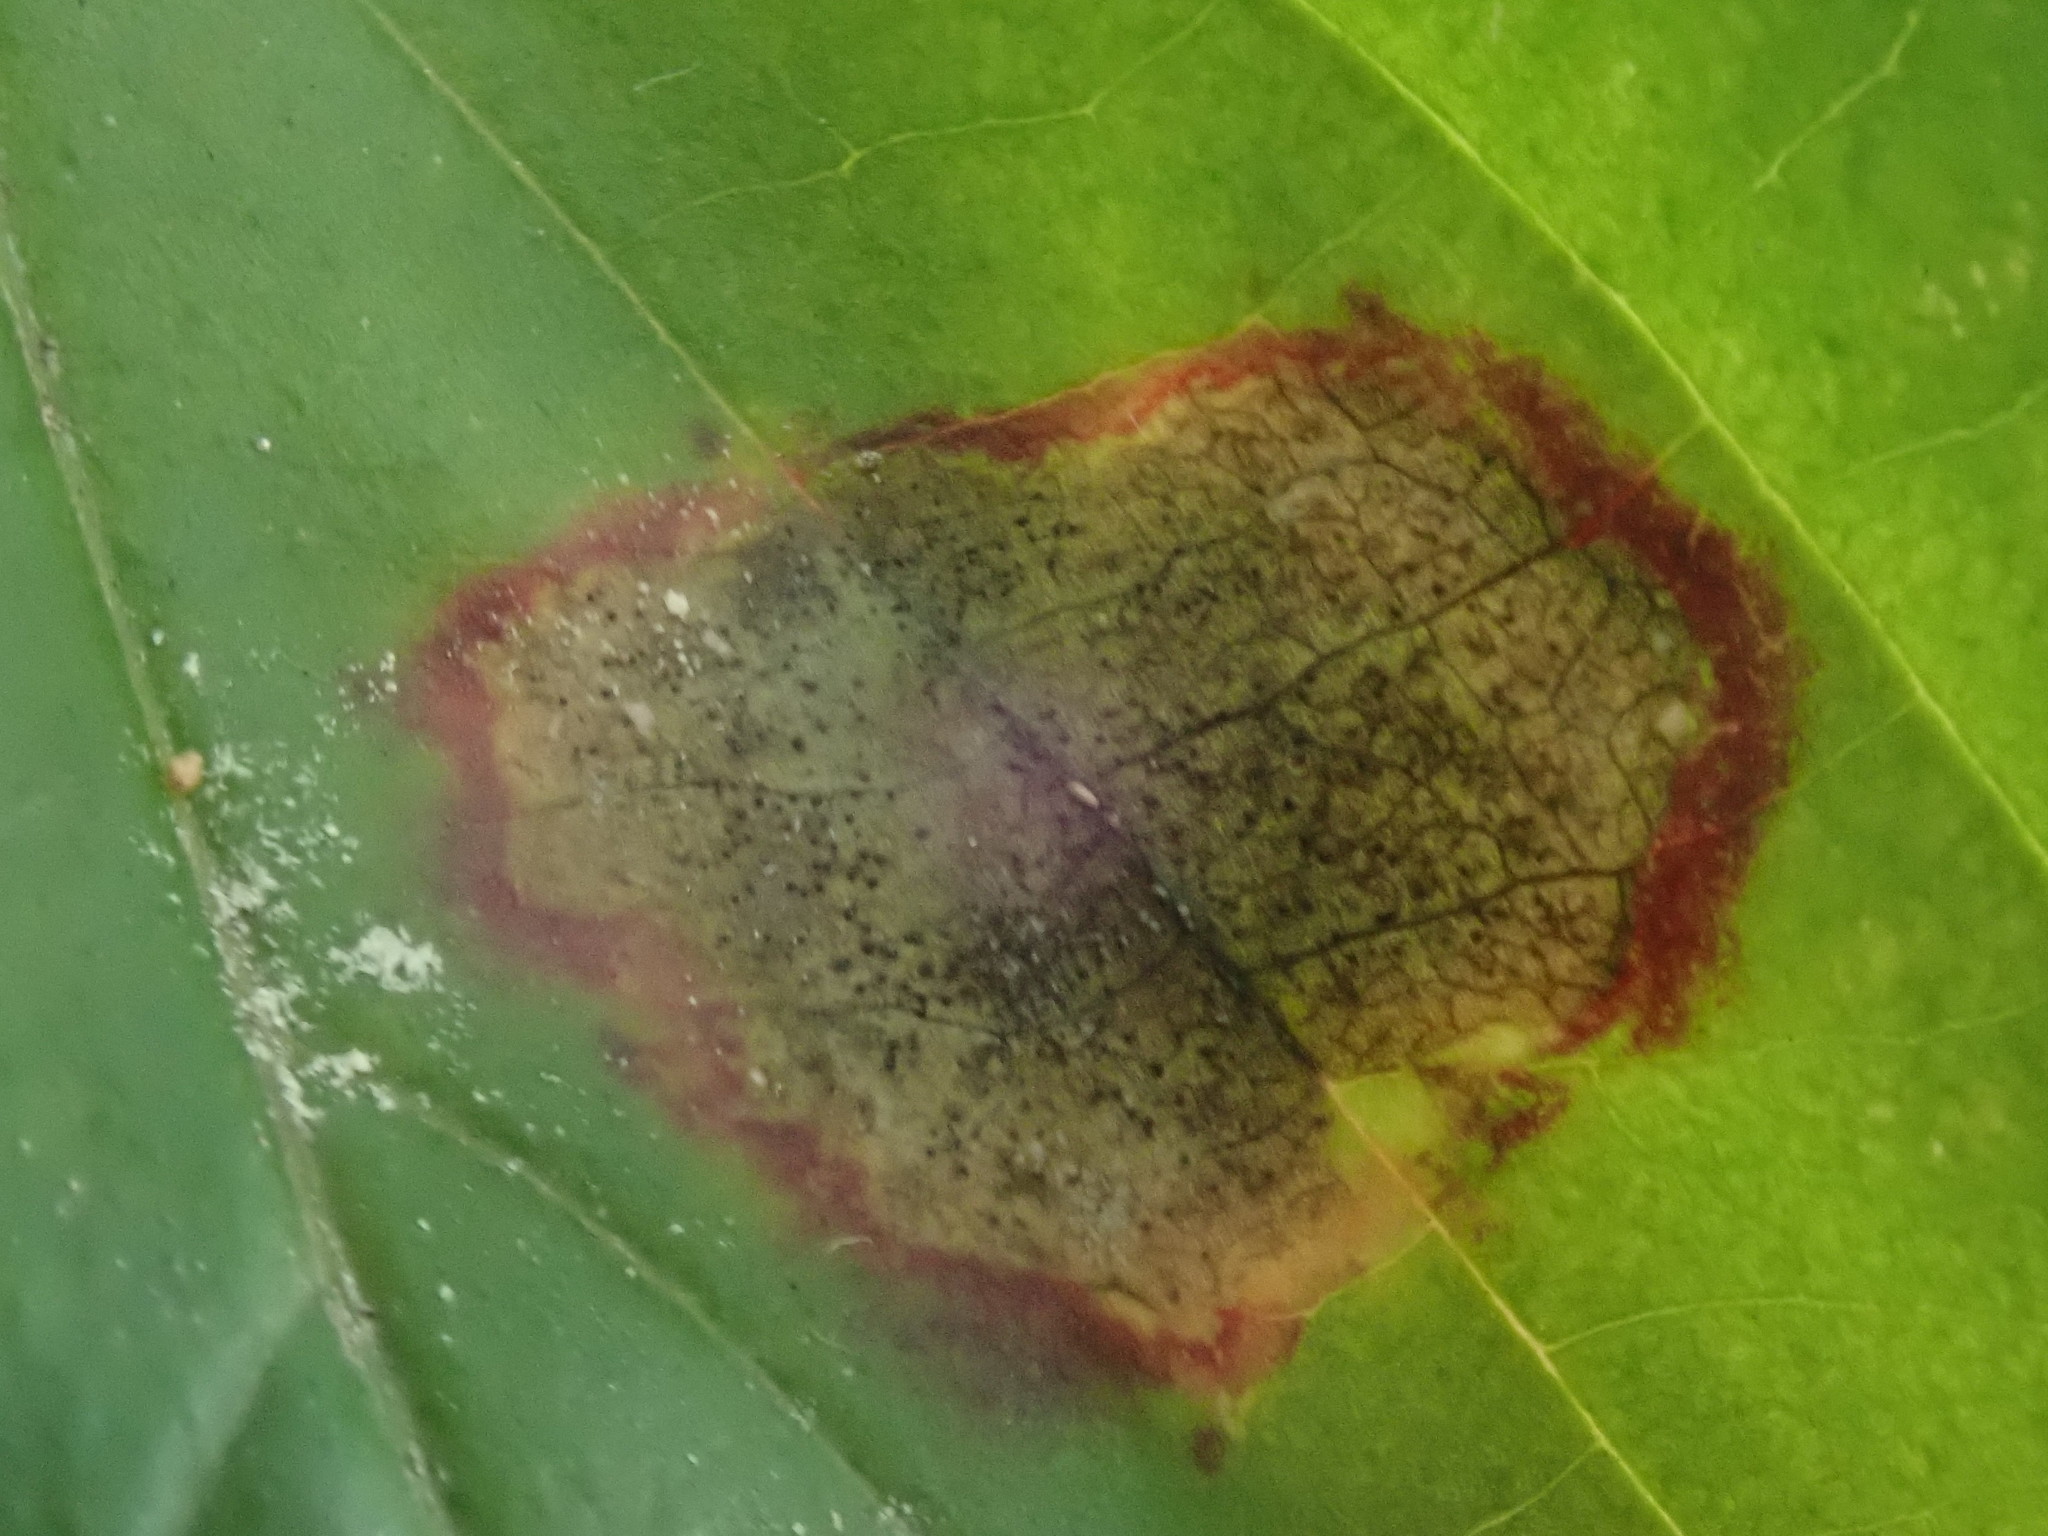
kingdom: Animalia
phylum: Arthropoda
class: Insecta
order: Diptera
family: Cecidomyiidae
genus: Parallelodiplosis
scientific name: Parallelodiplosis subtruncata
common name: Dogwood eyespot gall midge
